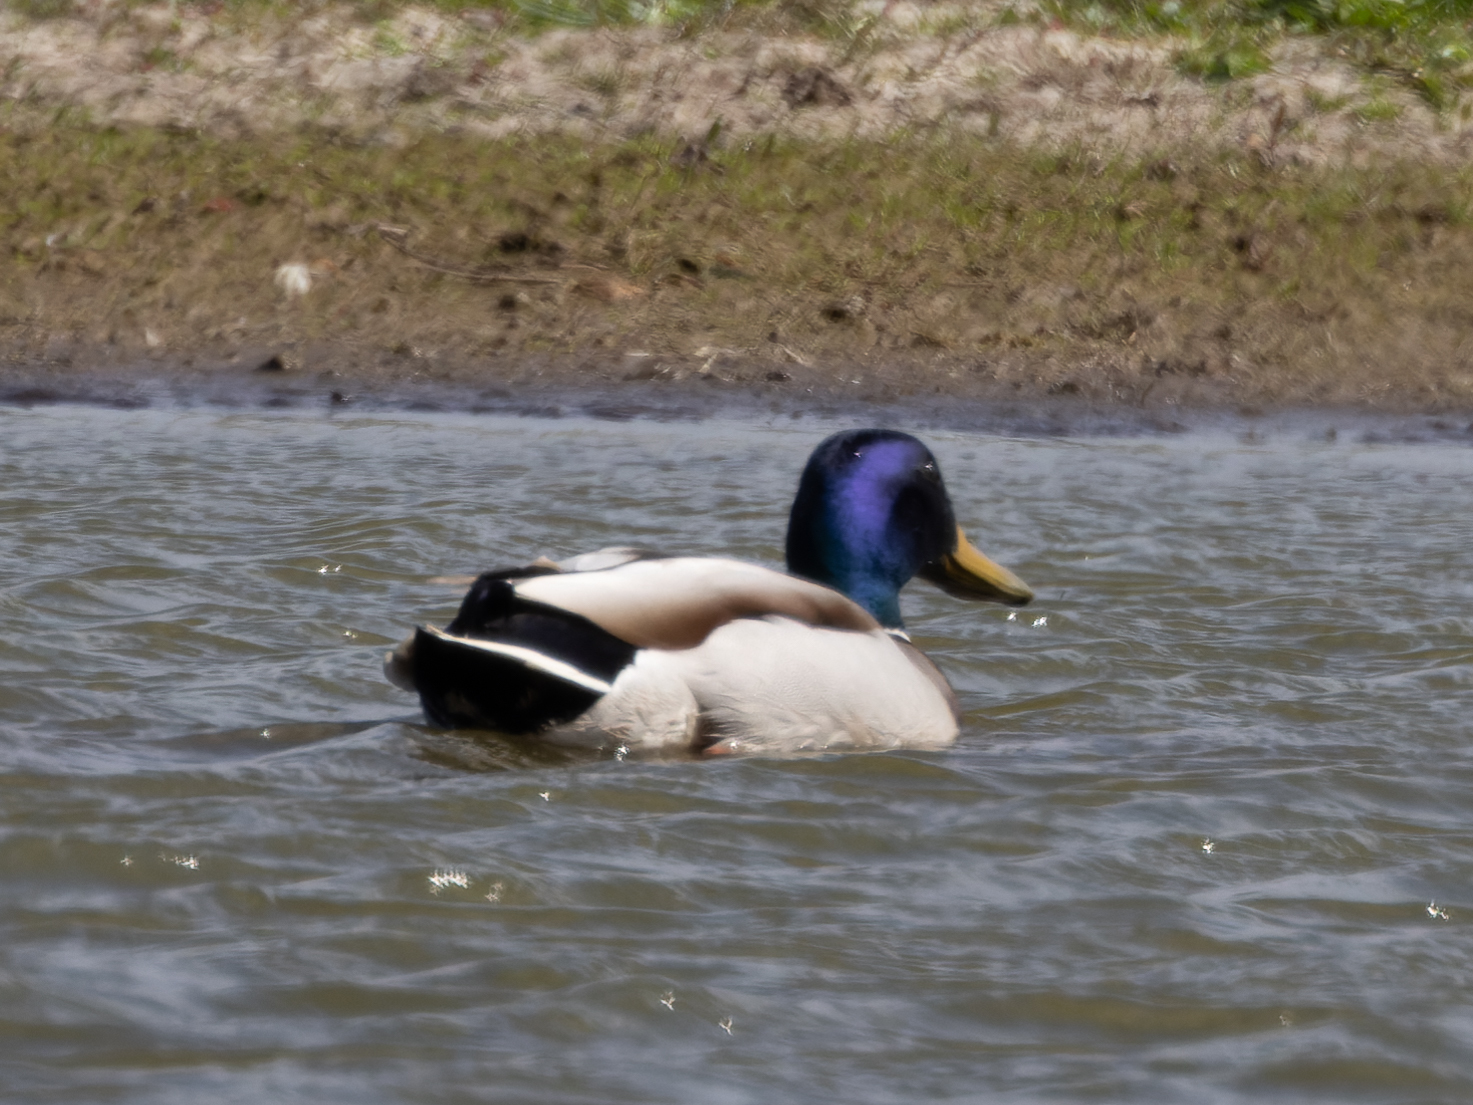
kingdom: Animalia
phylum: Chordata
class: Aves
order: Anseriformes
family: Anatidae
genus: Anas
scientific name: Anas platyrhynchos
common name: Mallard
